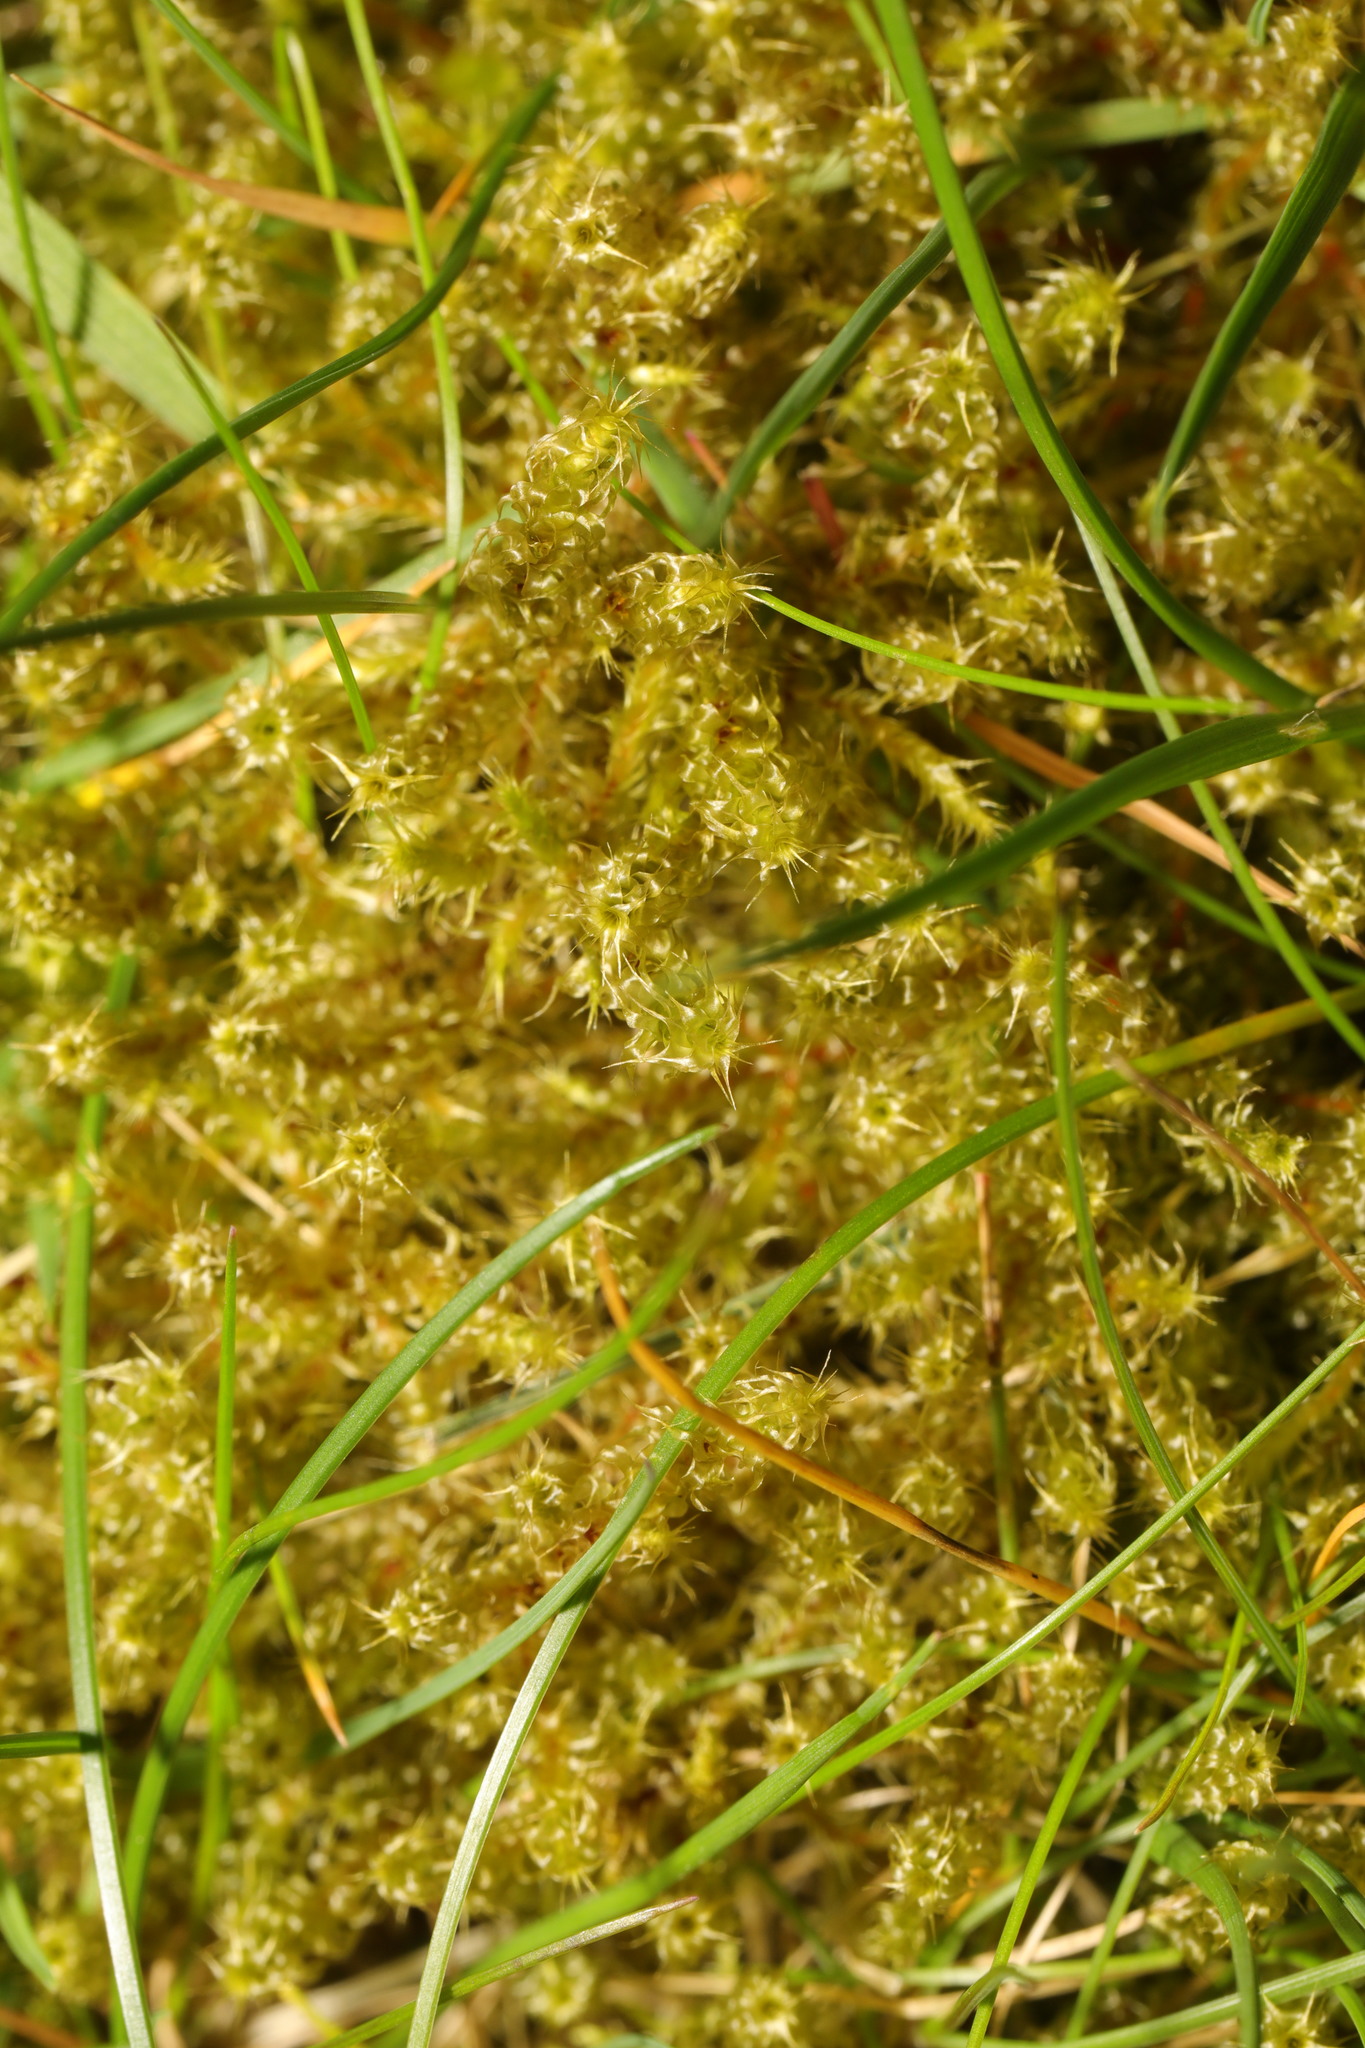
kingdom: Plantae
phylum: Bryophyta
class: Bryopsida
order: Hypnales
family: Hylocomiaceae
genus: Rhytidiadelphus
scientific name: Rhytidiadelphus squarrosus
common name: Springy turf-moss
